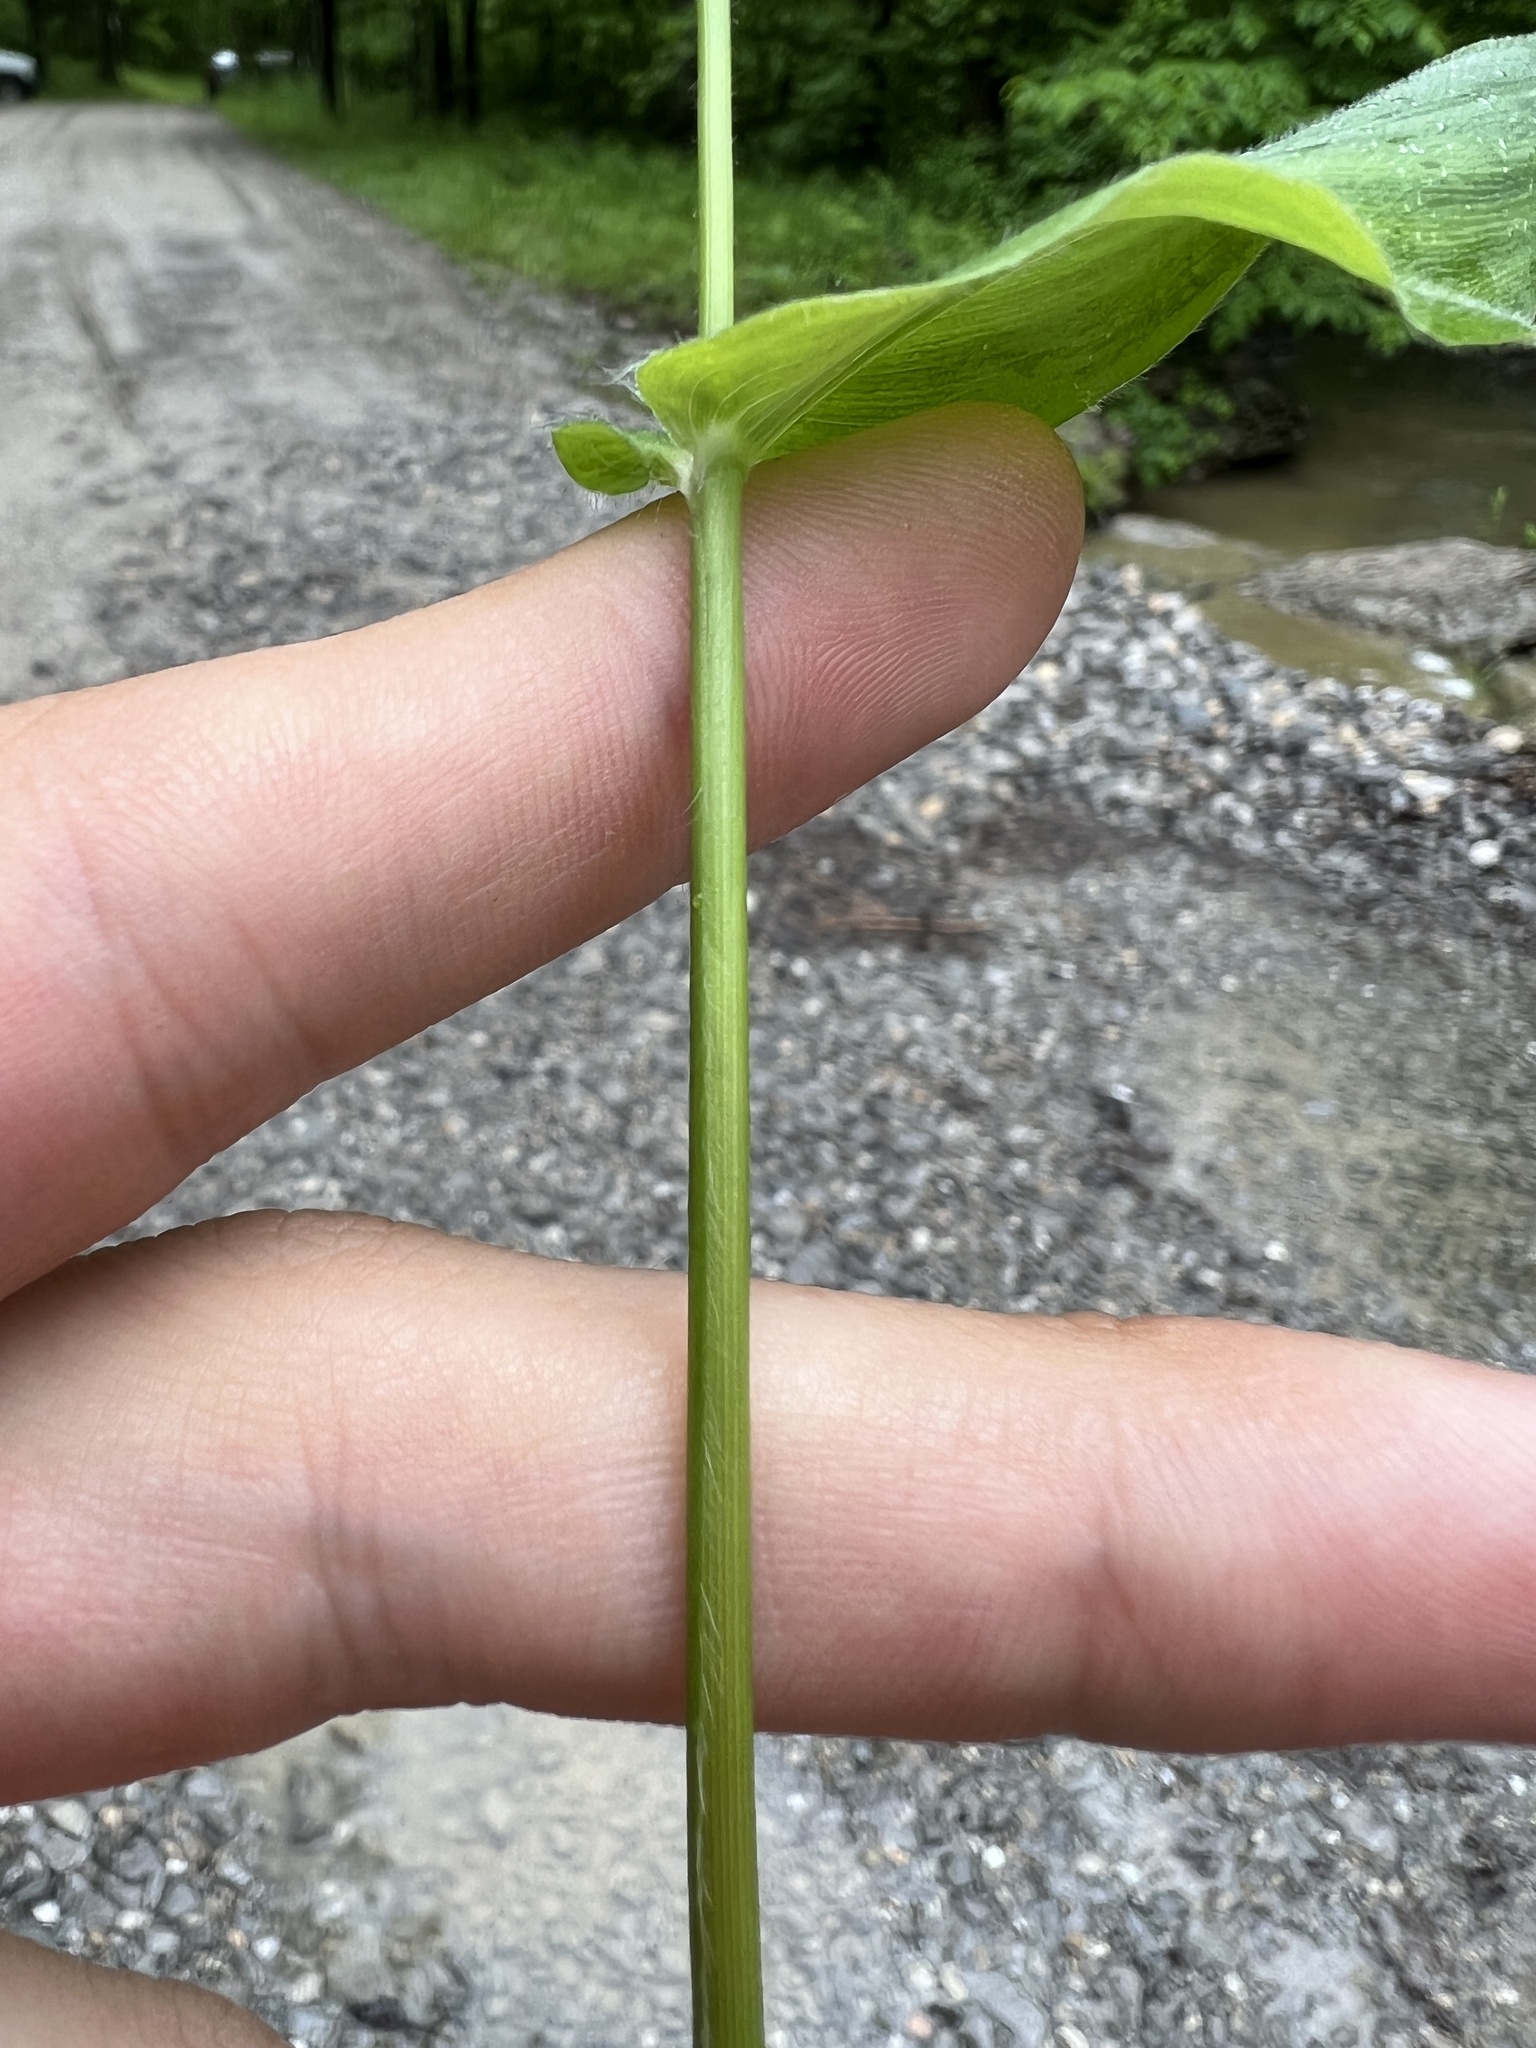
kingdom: Plantae
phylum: Tracheophyta
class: Liliopsida
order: Poales
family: Poaceae
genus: Dichanthelium
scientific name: Dichanthelium latifolium
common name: Broad-leaved panicgrass
